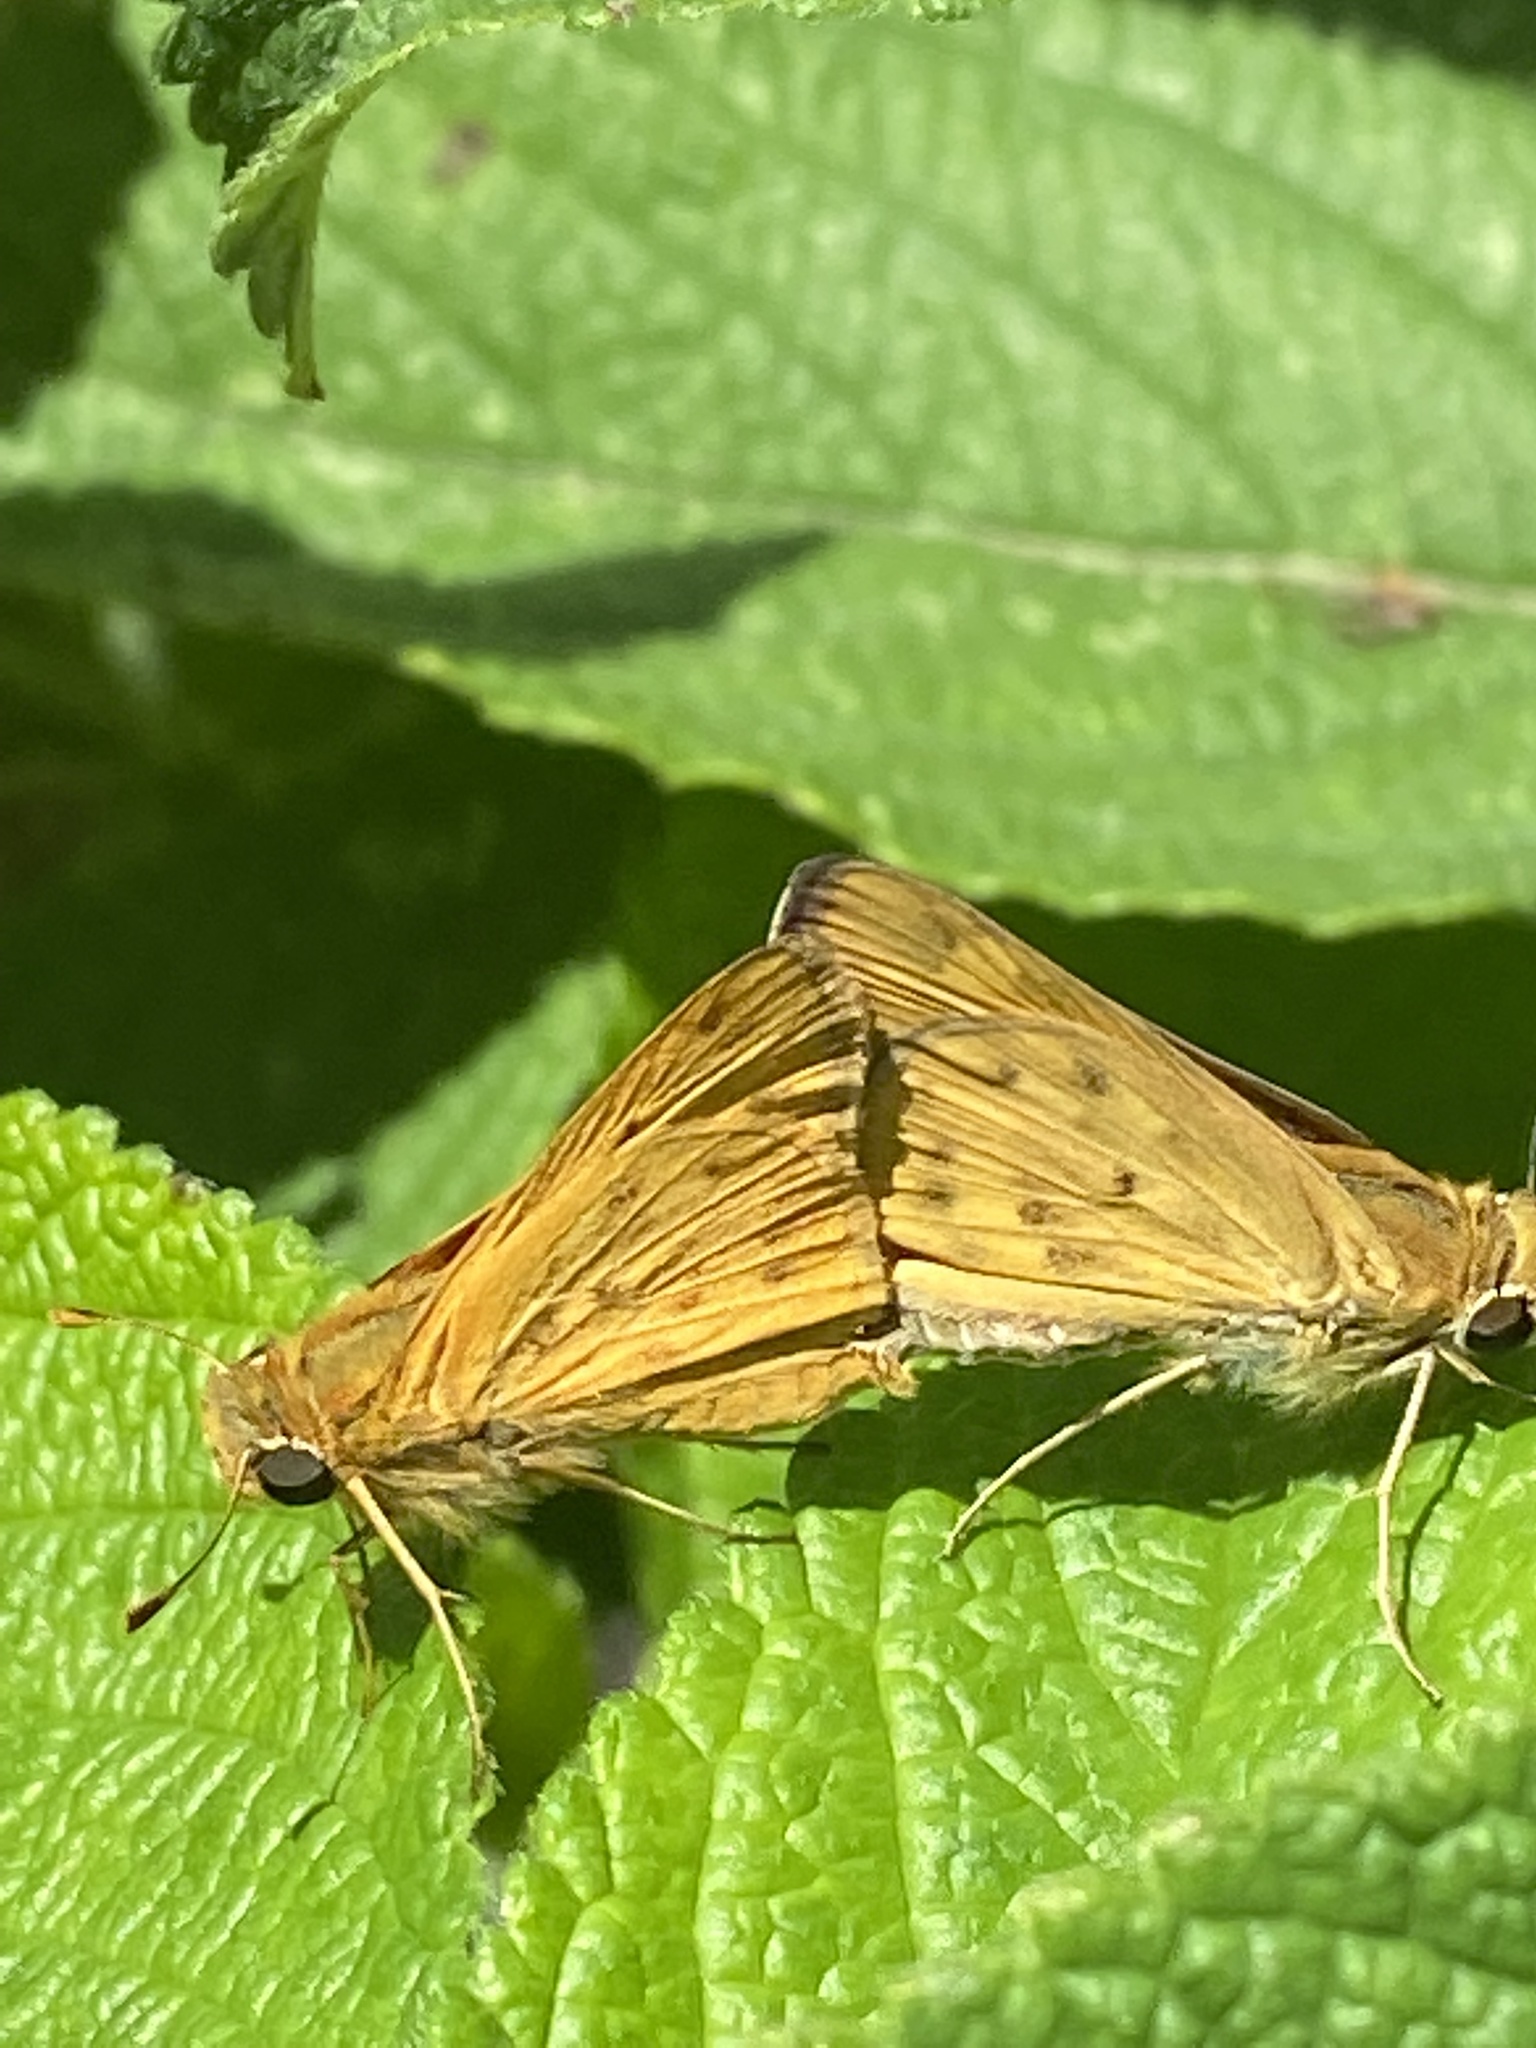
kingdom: Animalia
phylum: Arthropoda
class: Insecta
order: Lepidoptera
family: Hesperiidae
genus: Hylephila
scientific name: Hylephila phyleus
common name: Fiery skipper
